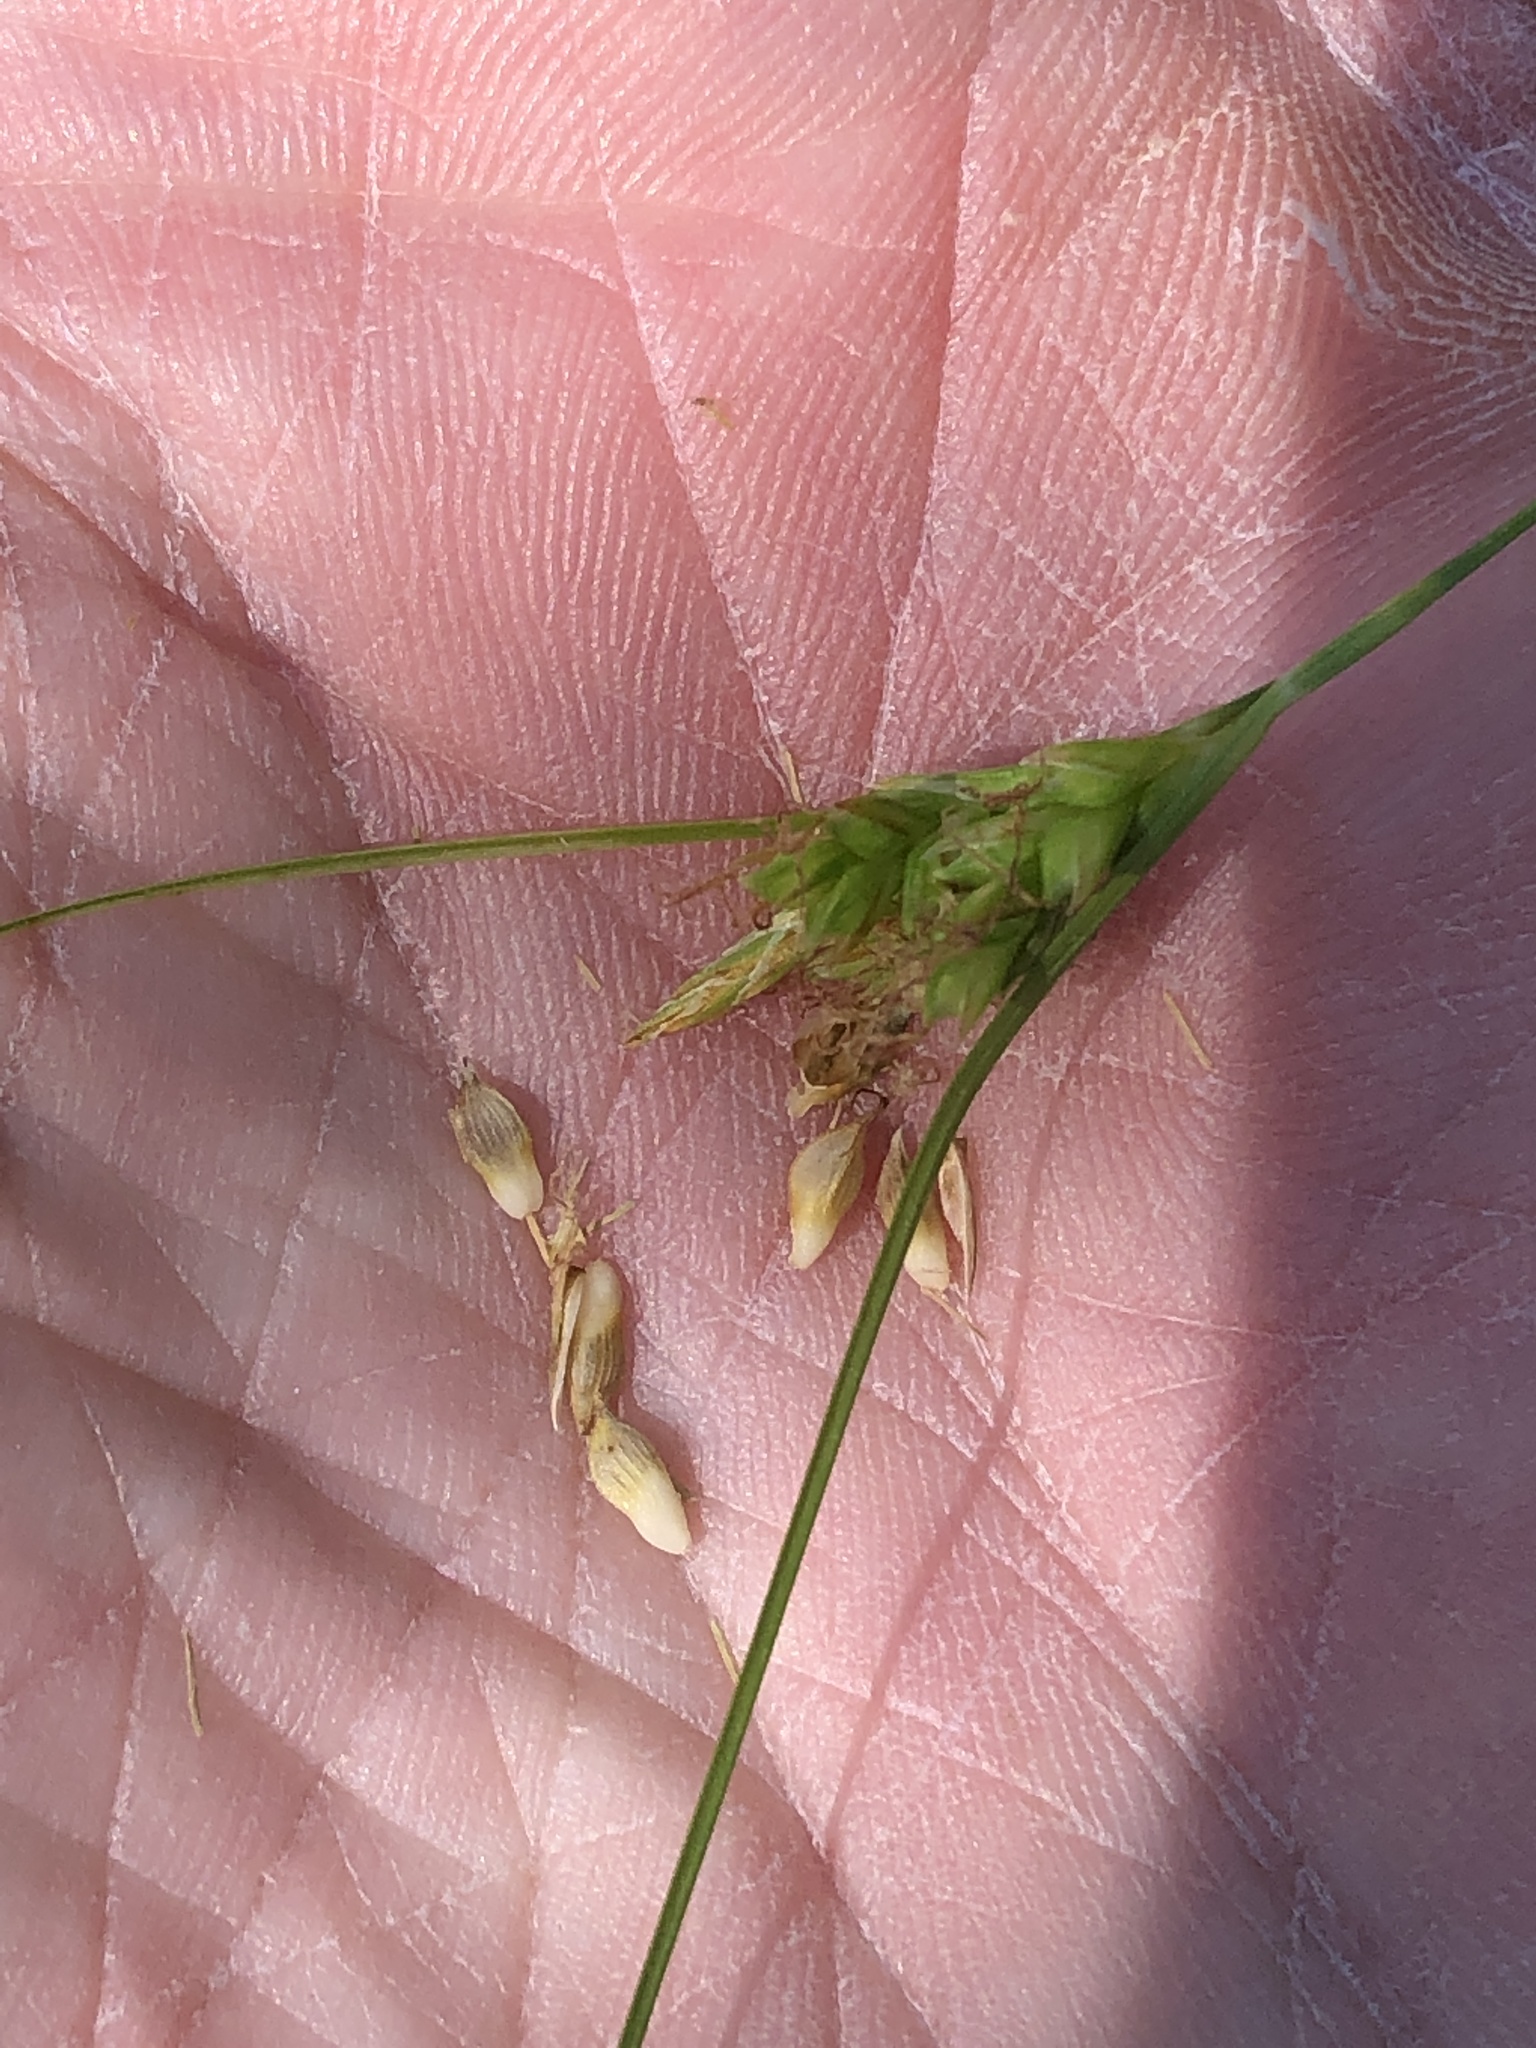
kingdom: Plantae
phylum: Tracheophyta
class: Liliopsida
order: Poales
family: Cyperaceae
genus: Carex
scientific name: Carex planostachys
